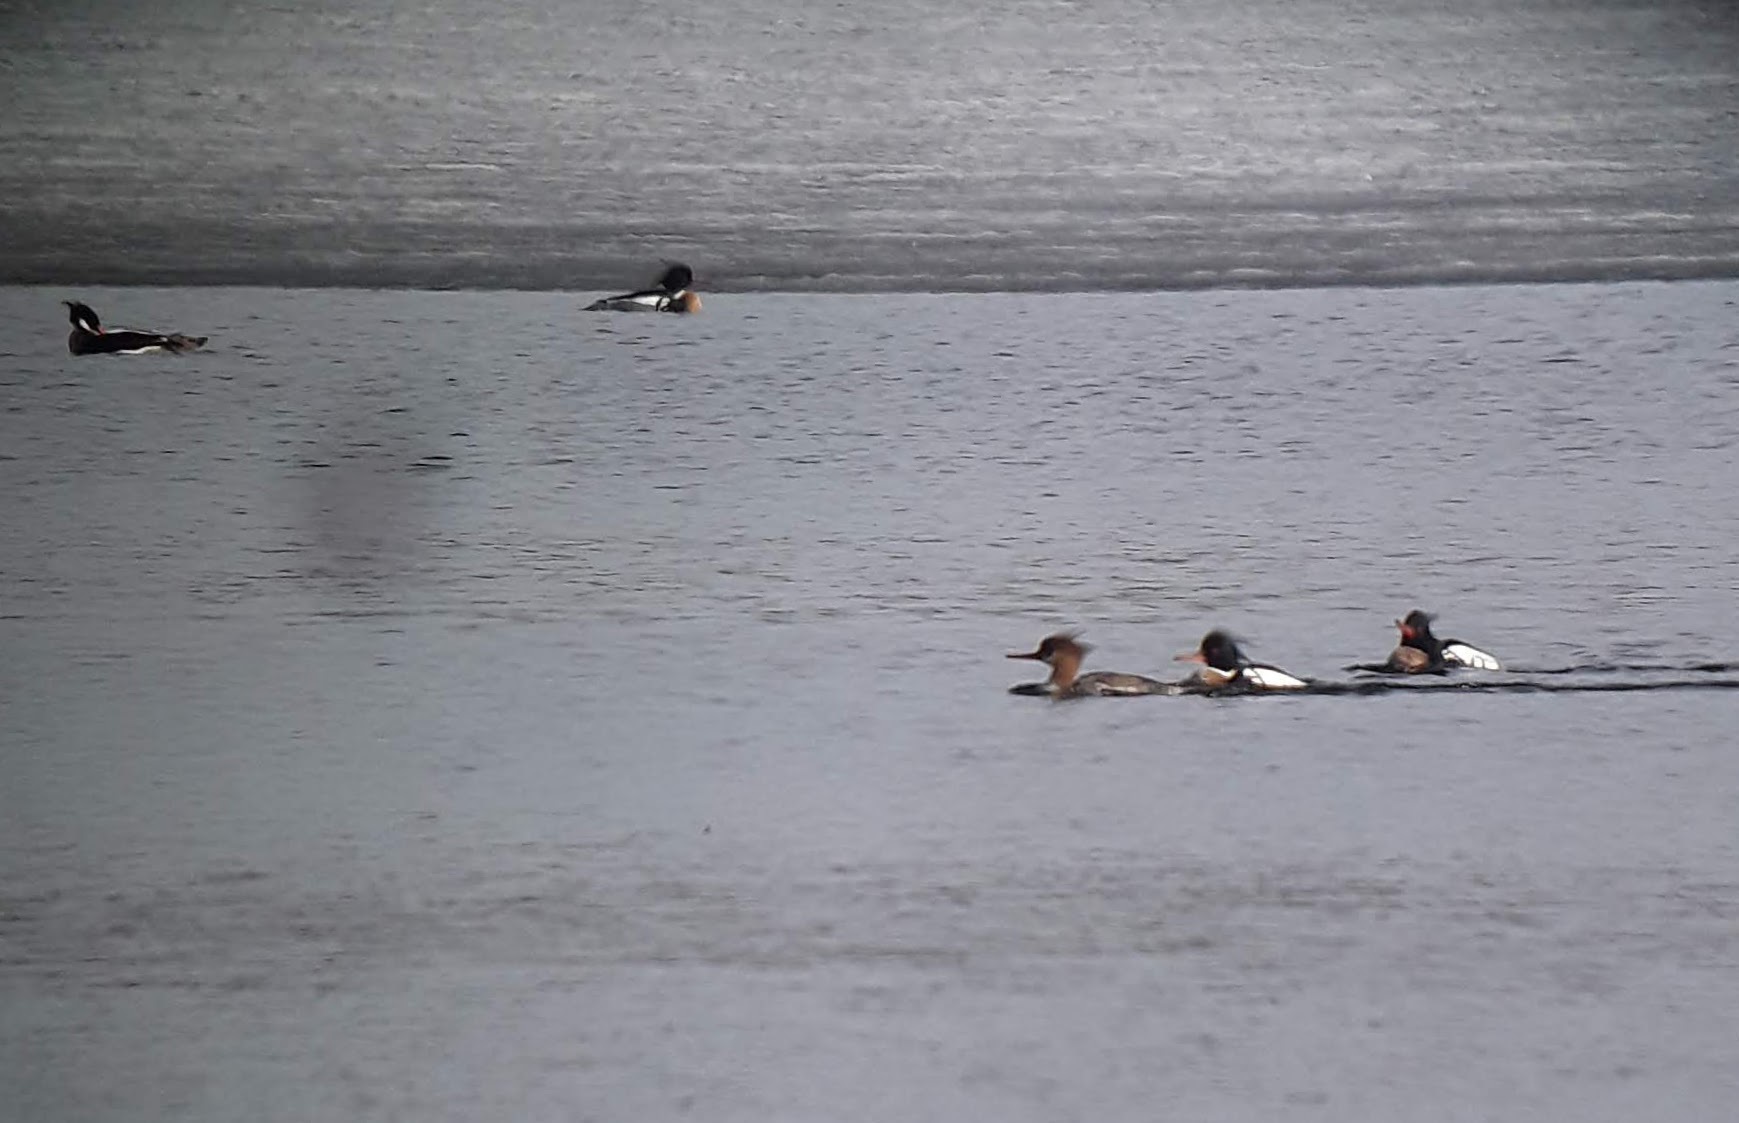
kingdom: Animalia
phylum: Chordata
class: Aves
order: Anseriformes
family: Anatidae
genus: Mergus
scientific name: Mergus serrator
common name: Red-breasted merganser
